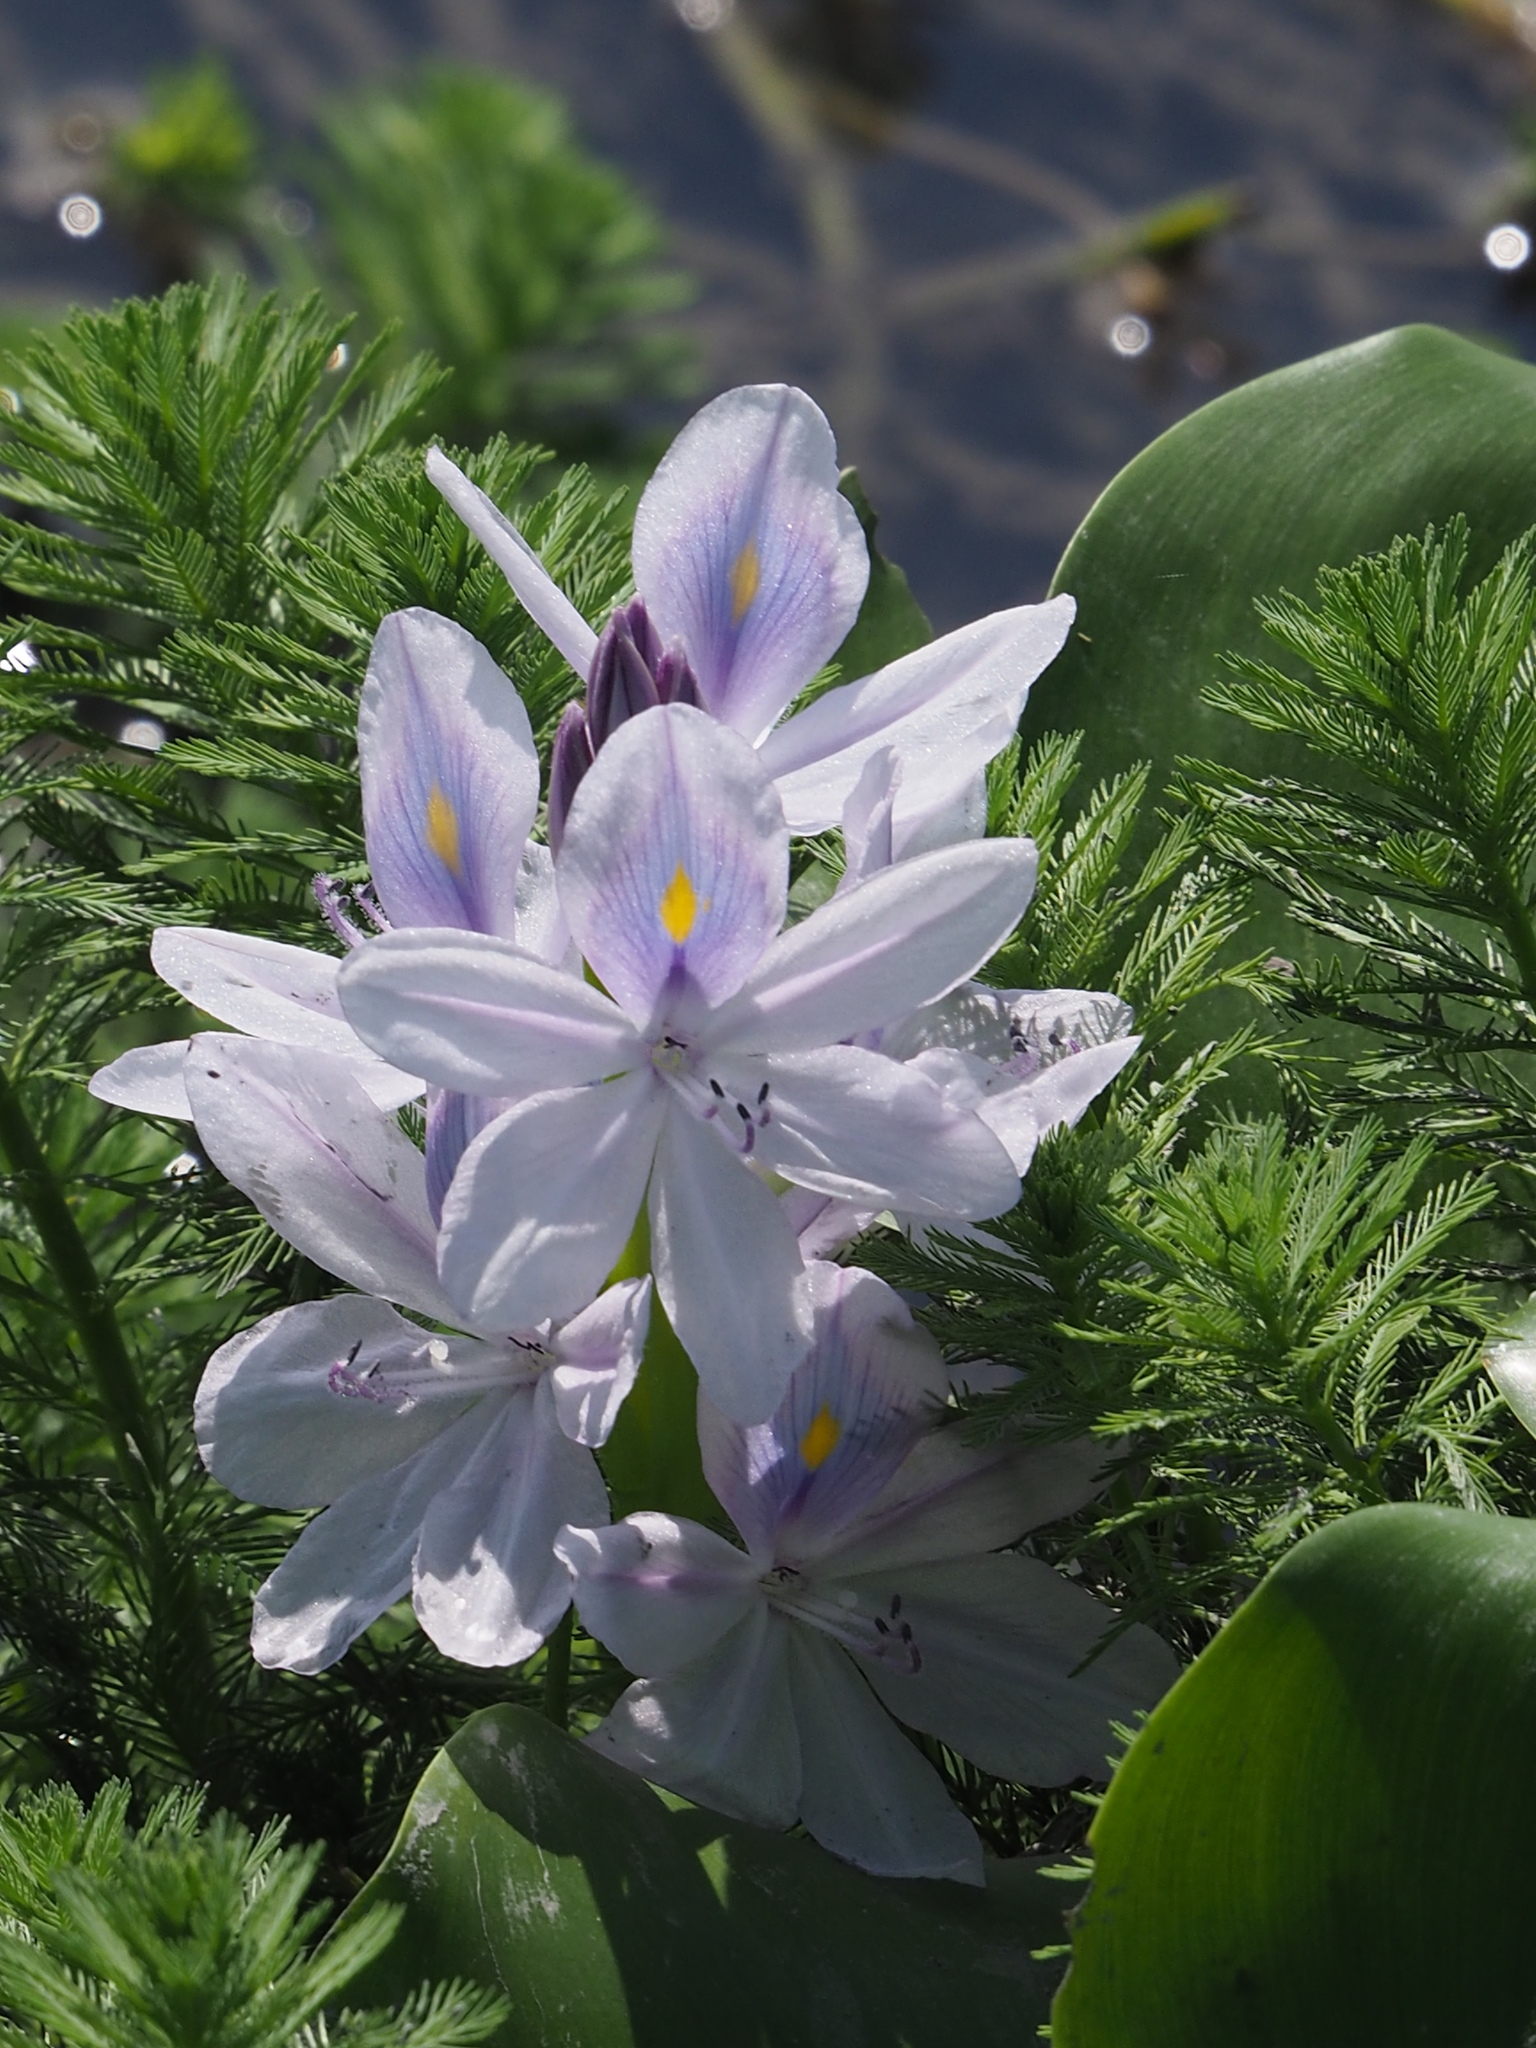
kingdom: Plantae
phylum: Tracheophyta
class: Liliopsida
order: Commelinales
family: Pontederiaceae
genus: Pontederia
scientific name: Pontederia crassipes
